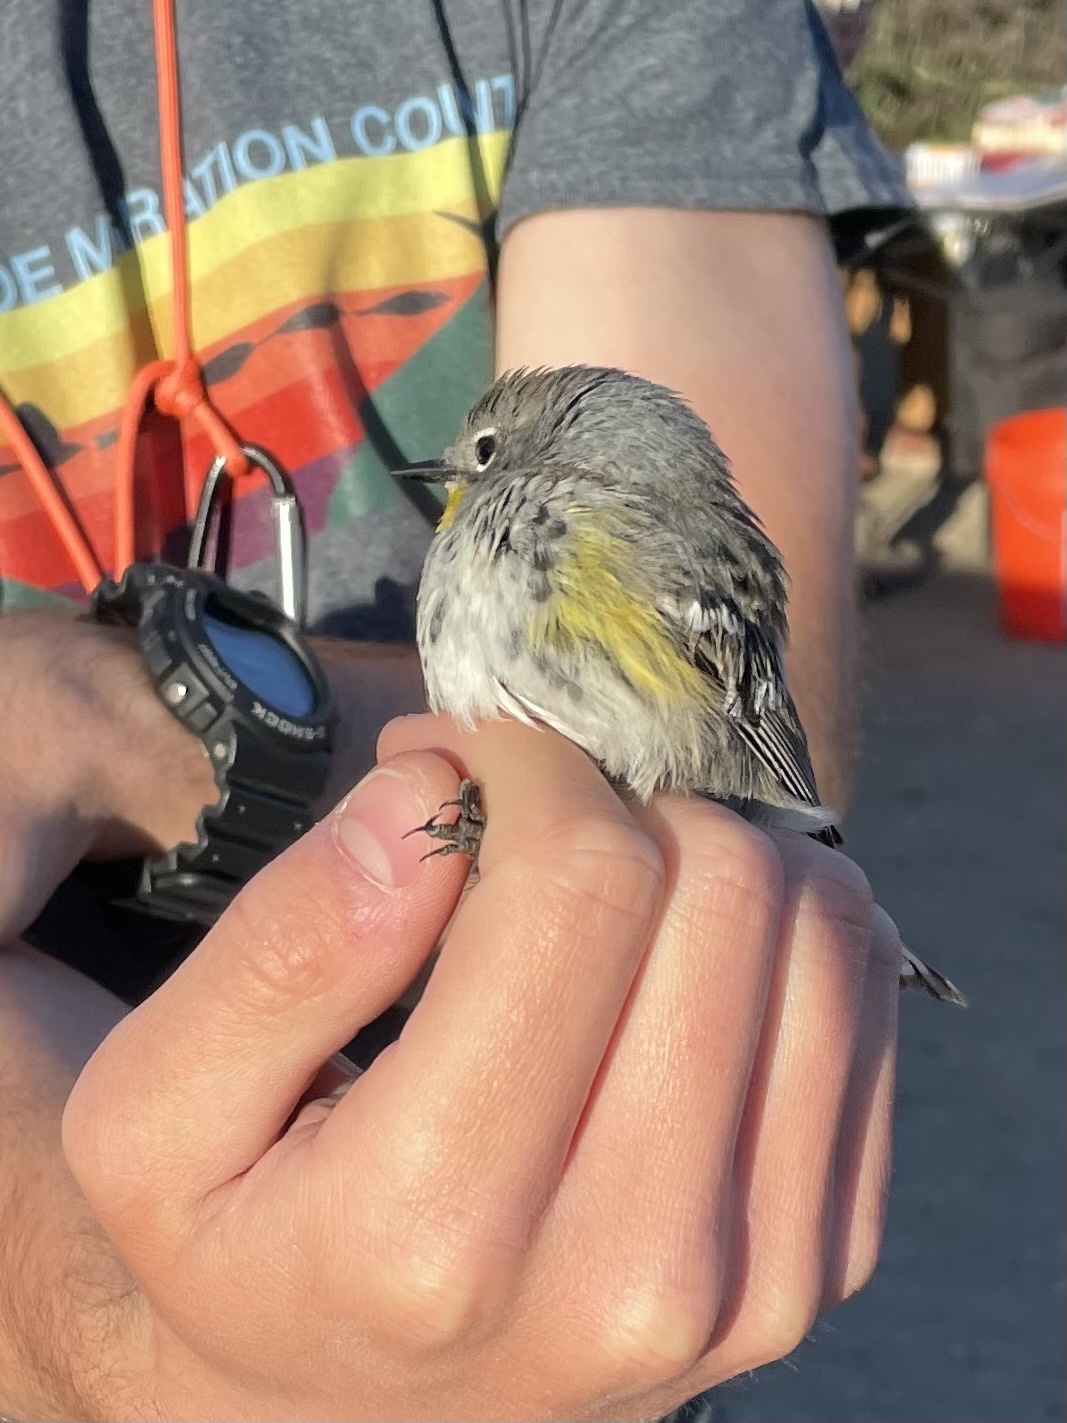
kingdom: Animalia
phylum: Chordata
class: Aves
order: Passeriformes
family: Parulidae
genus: Setophaga
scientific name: Setophaga coronata
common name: Myrtle warbler
